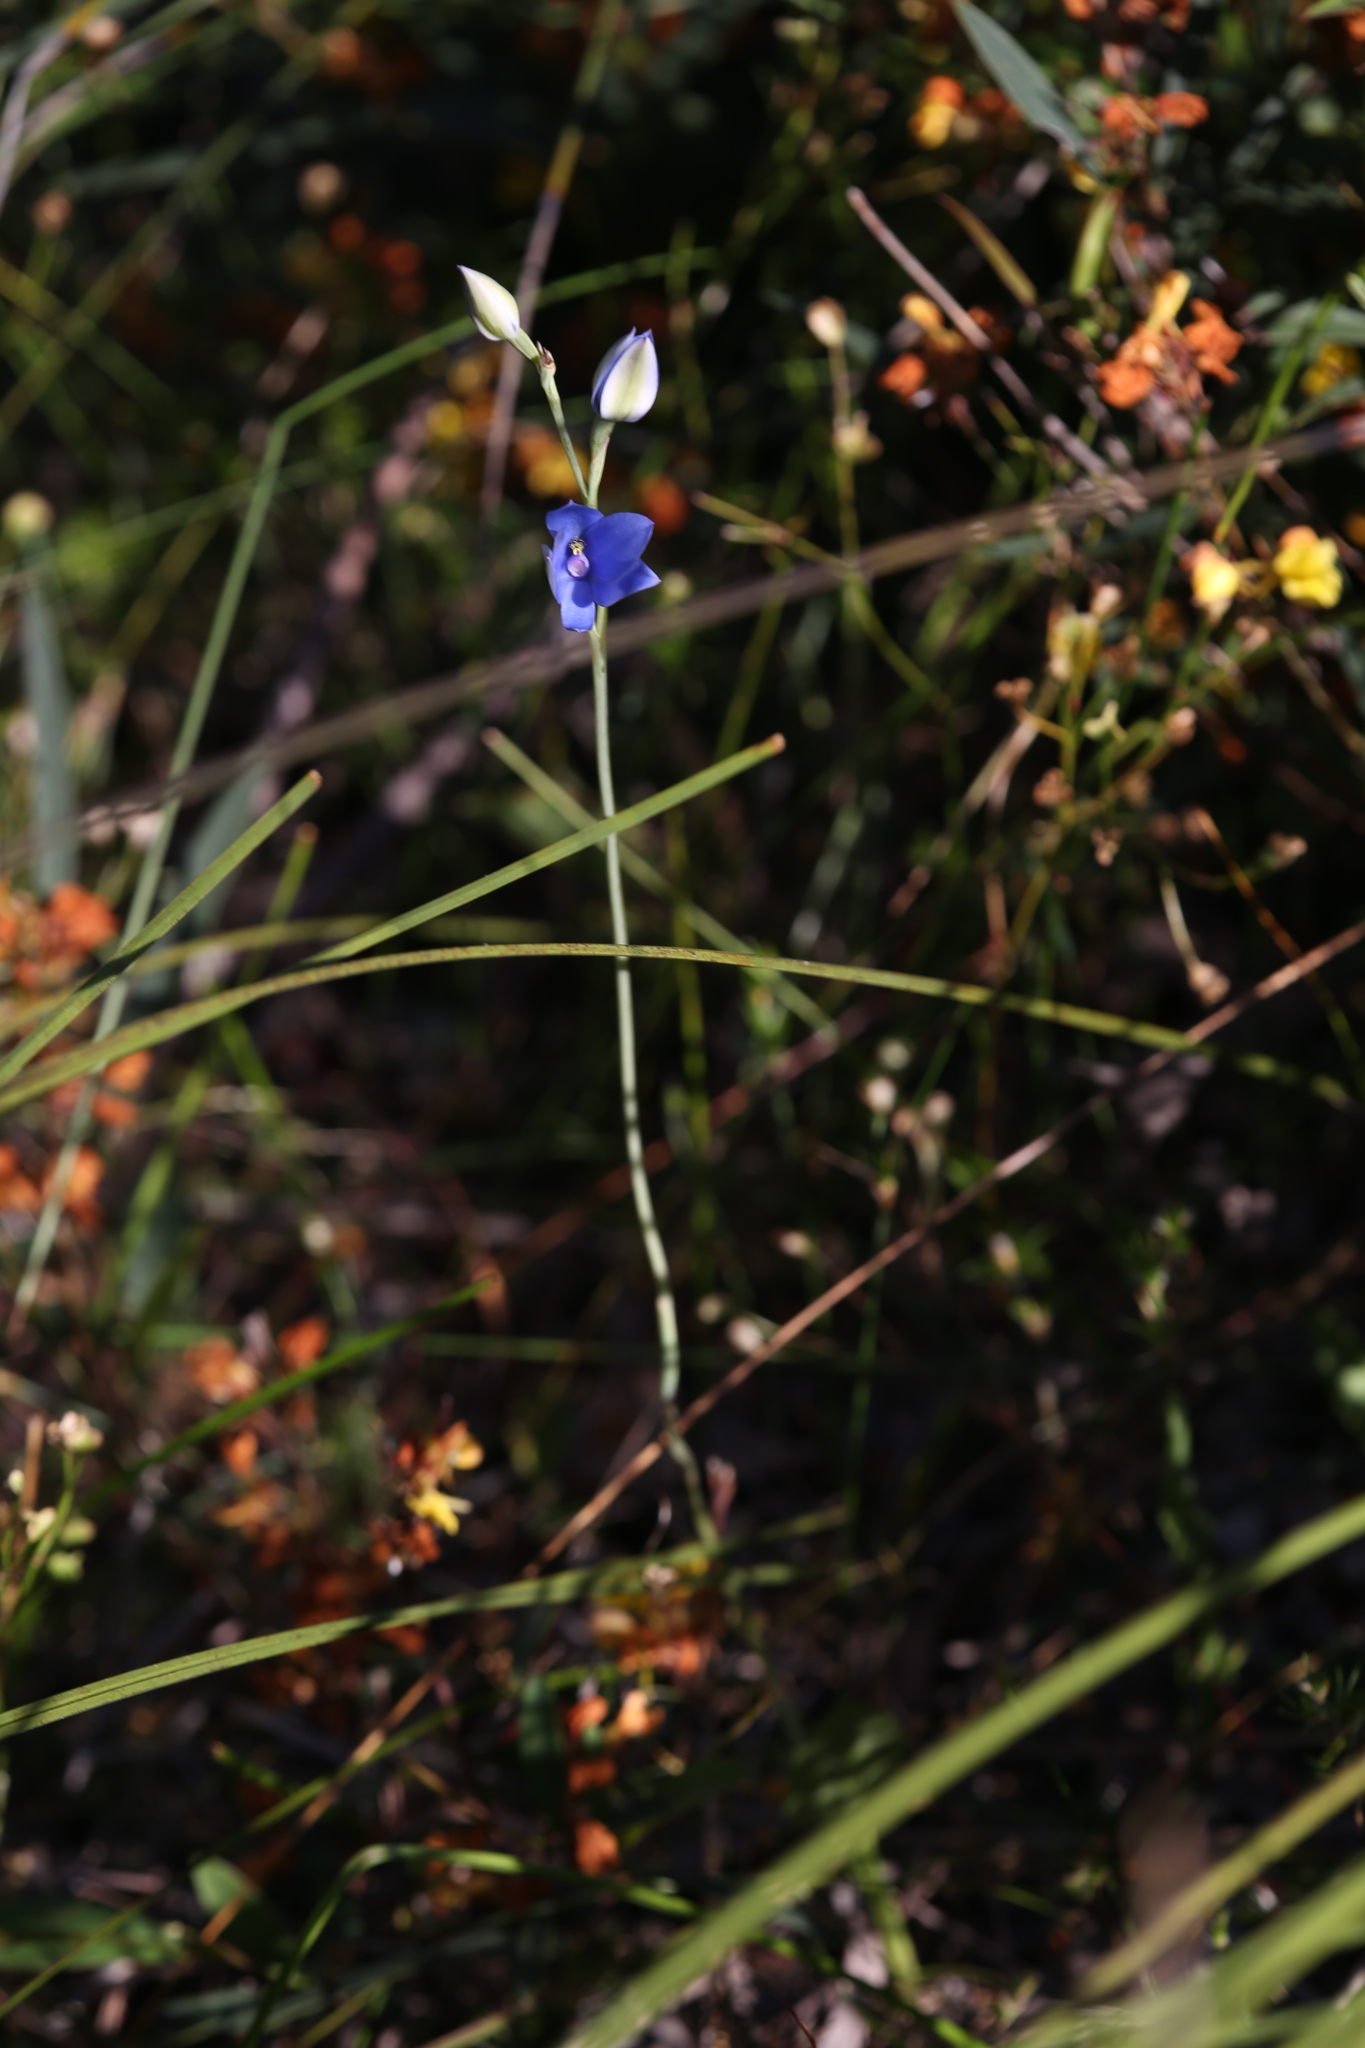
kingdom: Plantae
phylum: Tracheophyta
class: Liliopsida
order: Asparagales
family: Orchidaceae
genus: Thelymitra
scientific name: Thelymitra crinita
